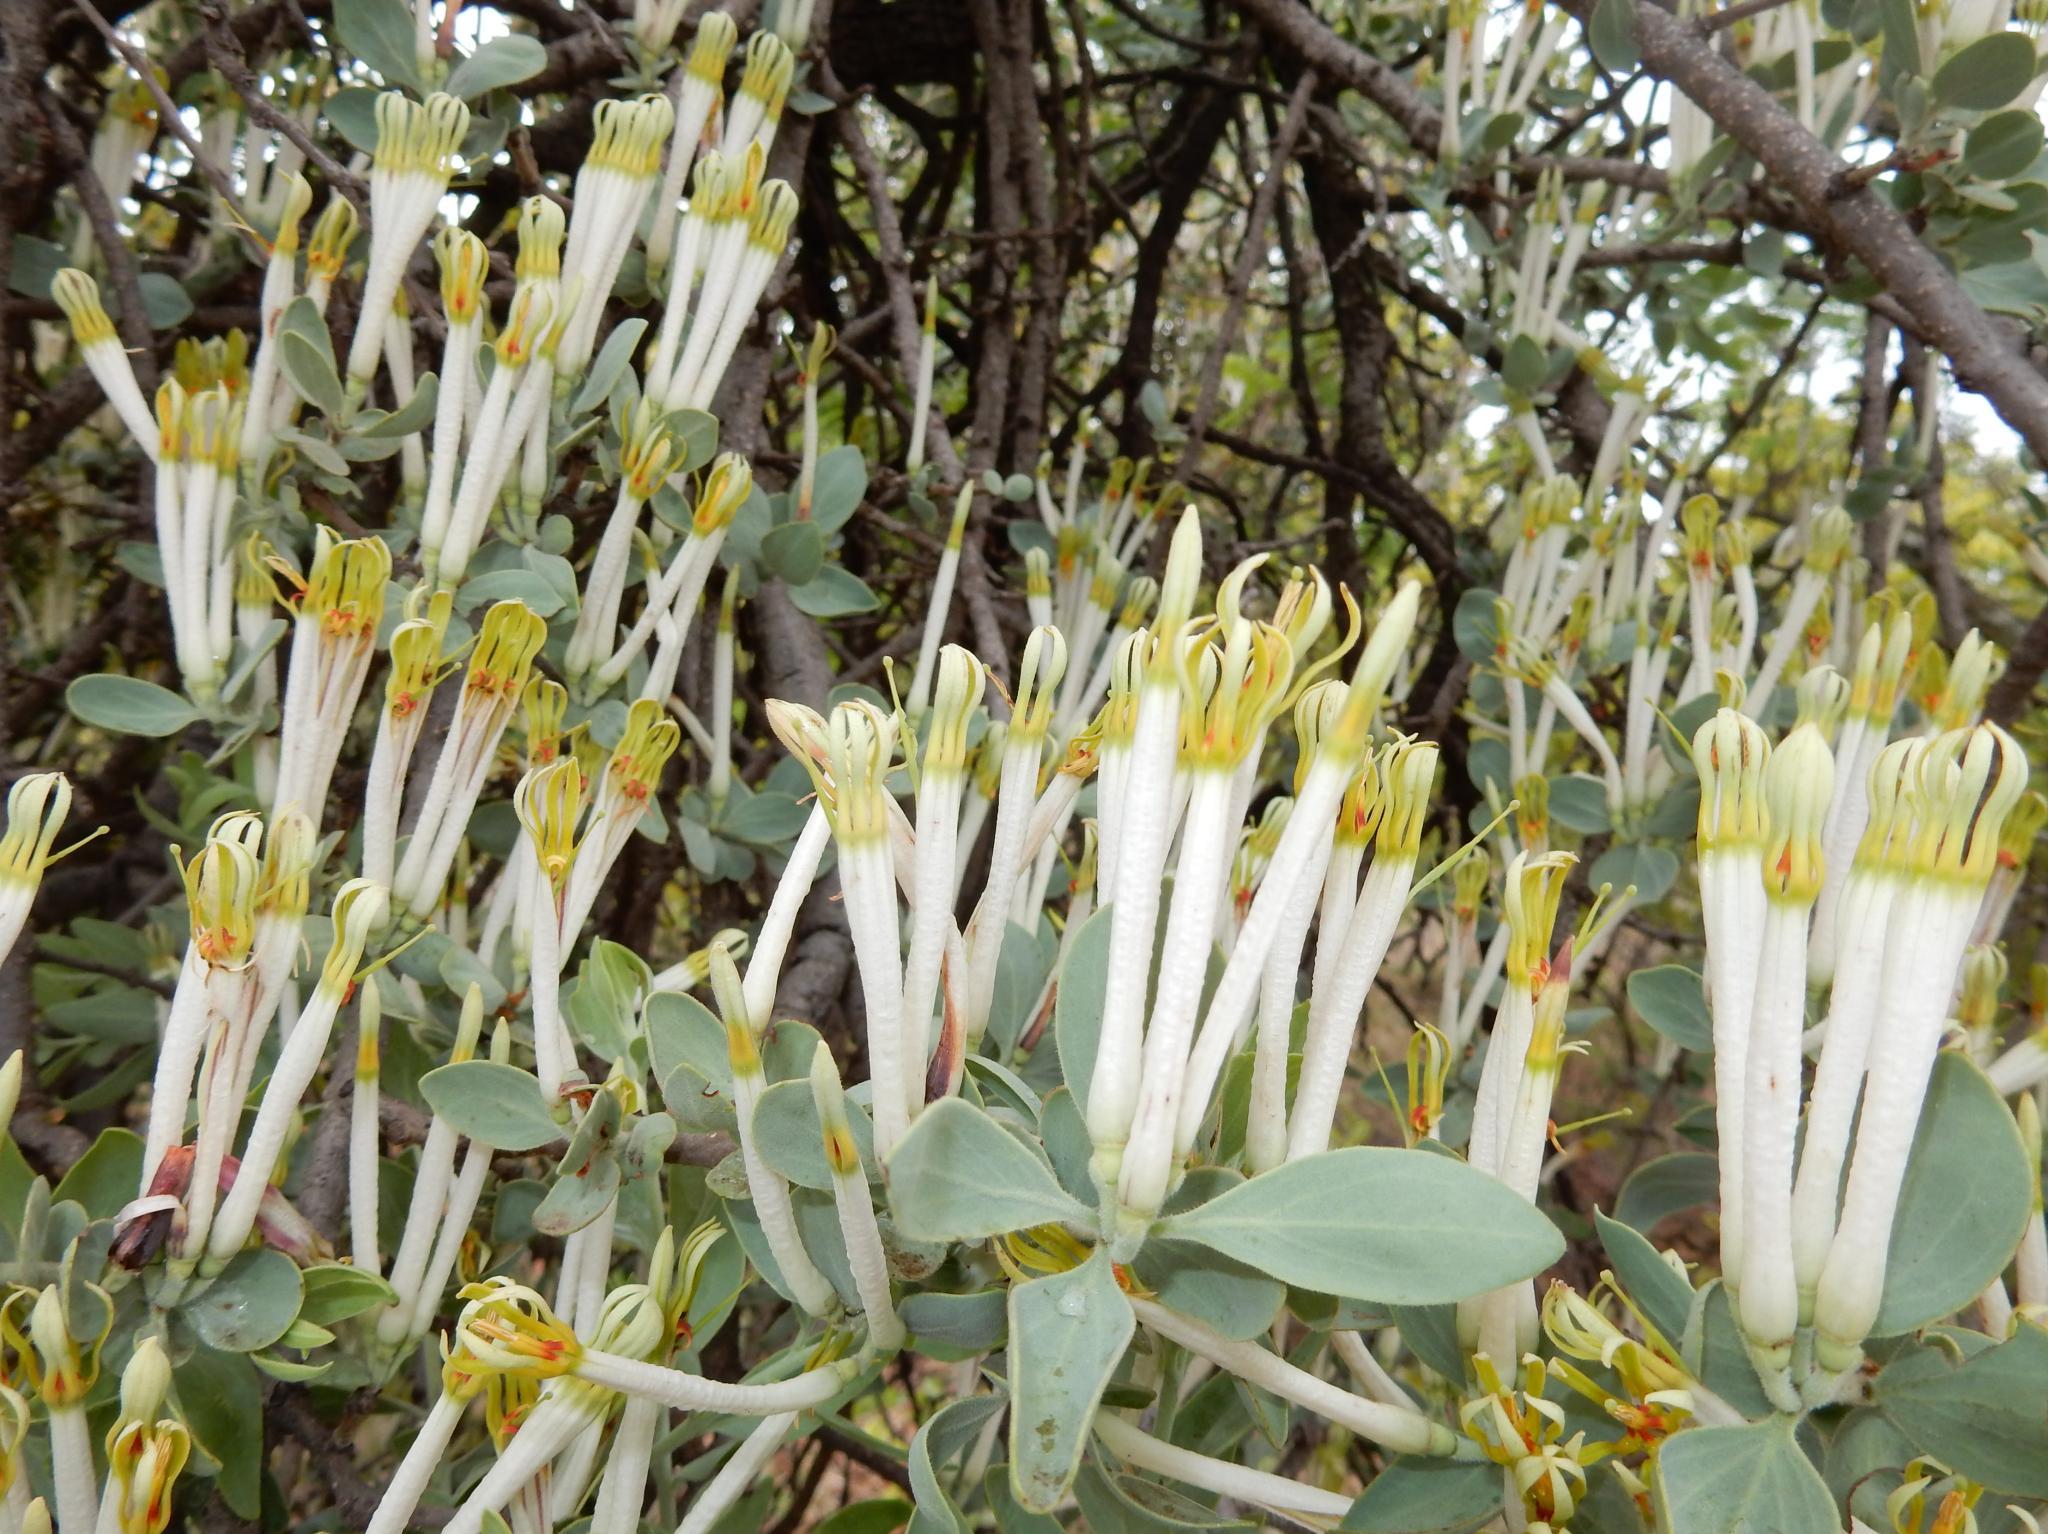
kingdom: Plantae
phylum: Tracheophyta
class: Magnoliopsida
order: Santalales
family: Loranthaceae
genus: Agelanthus
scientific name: Agelanthus natalitius
